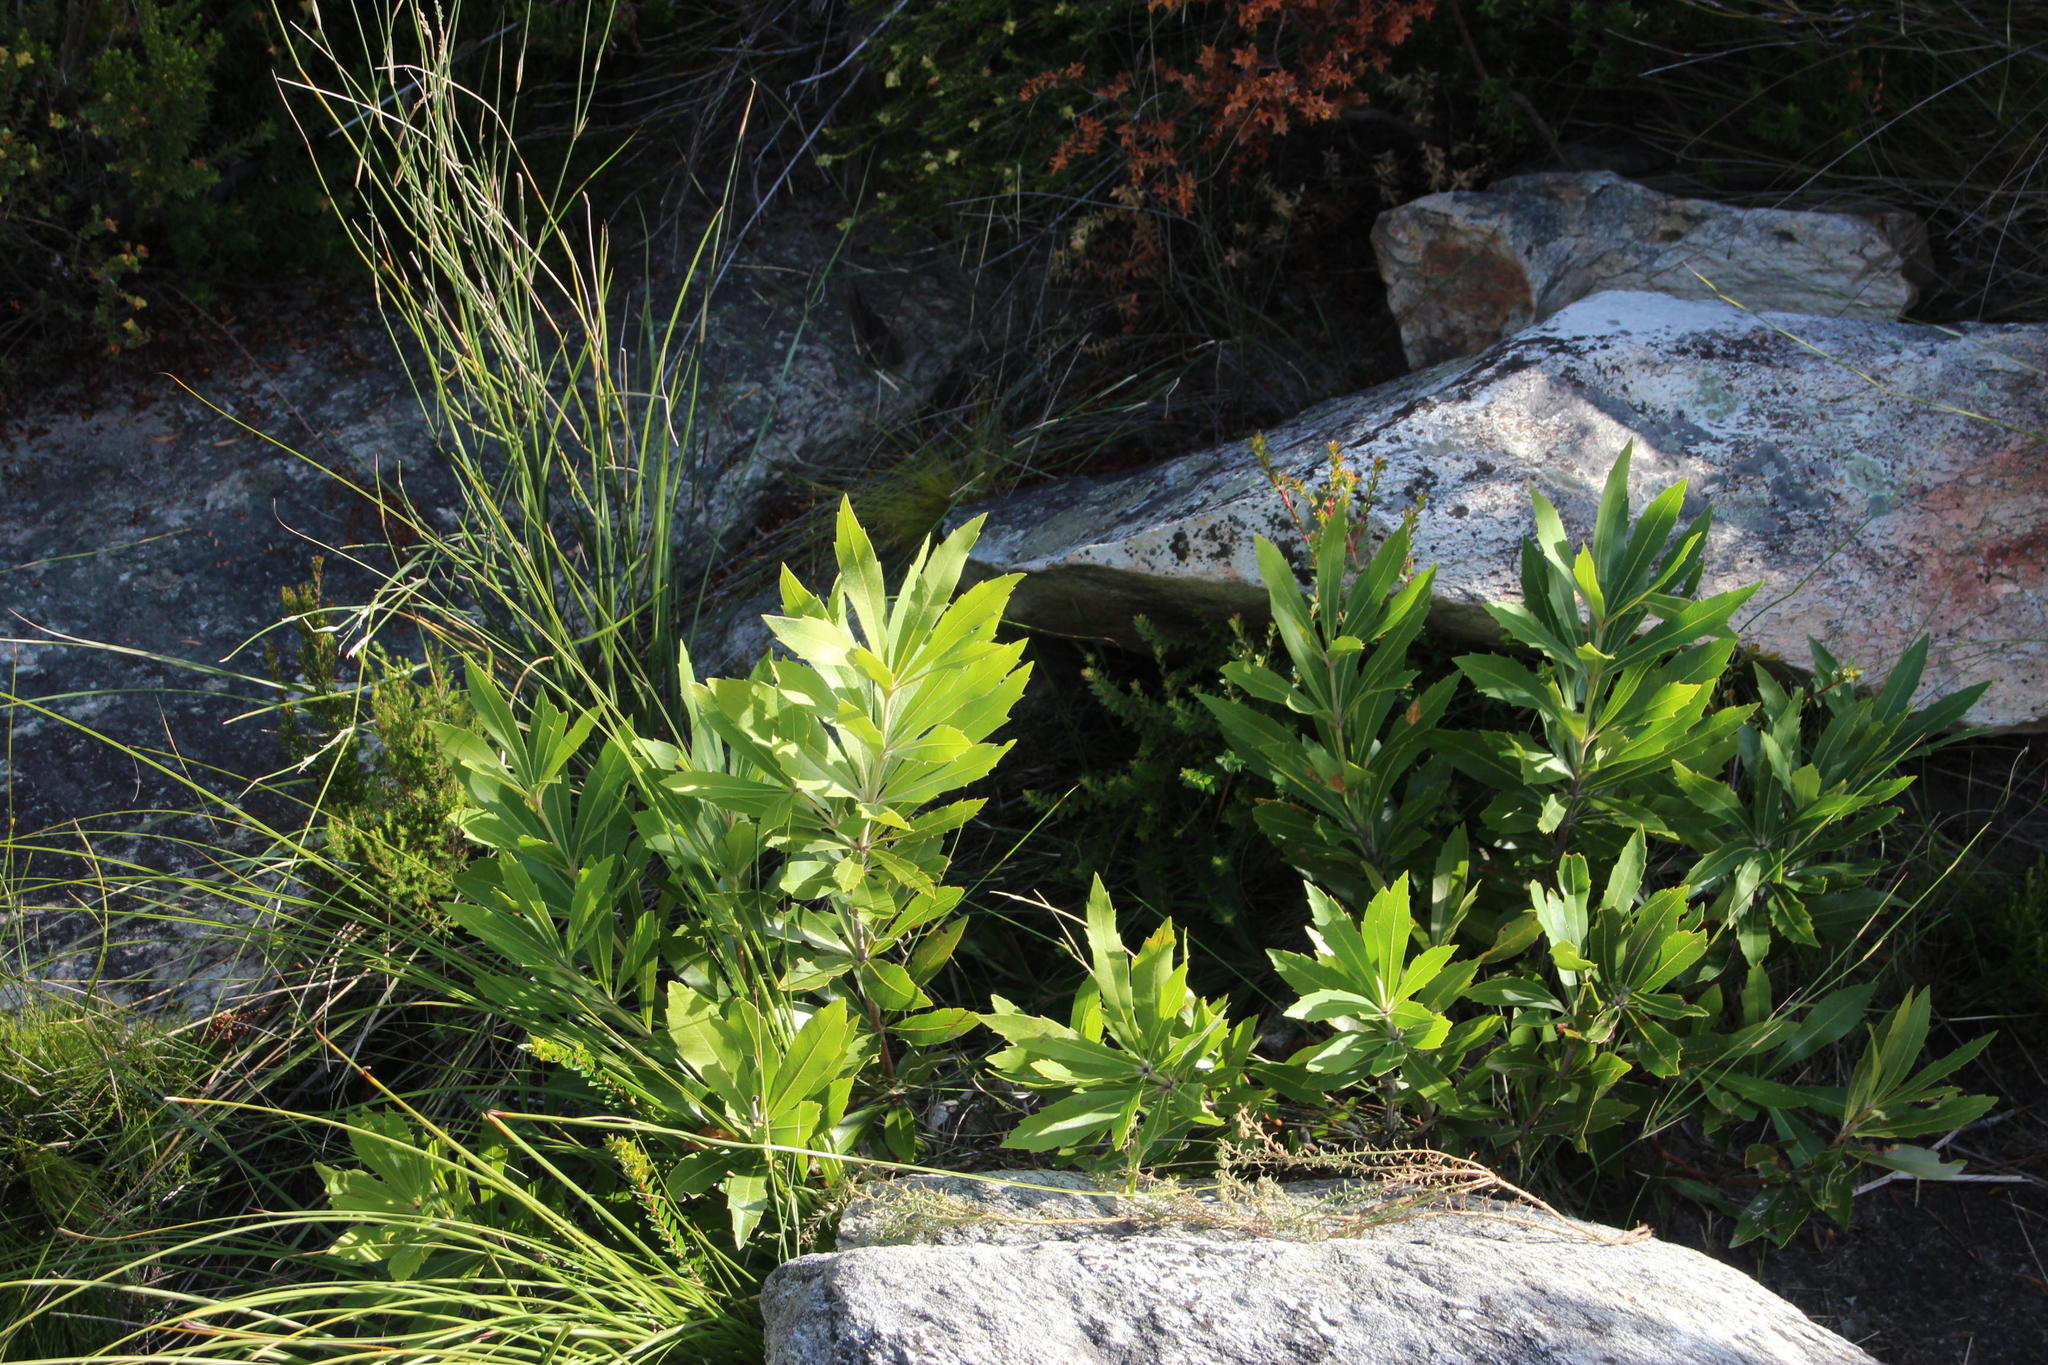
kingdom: Plantae
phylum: Tracheophyta
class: Magnoliopsida
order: Proteales
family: Proteaceae
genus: Brabejum
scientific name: Brabejum stellatifolium
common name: Wild almond
